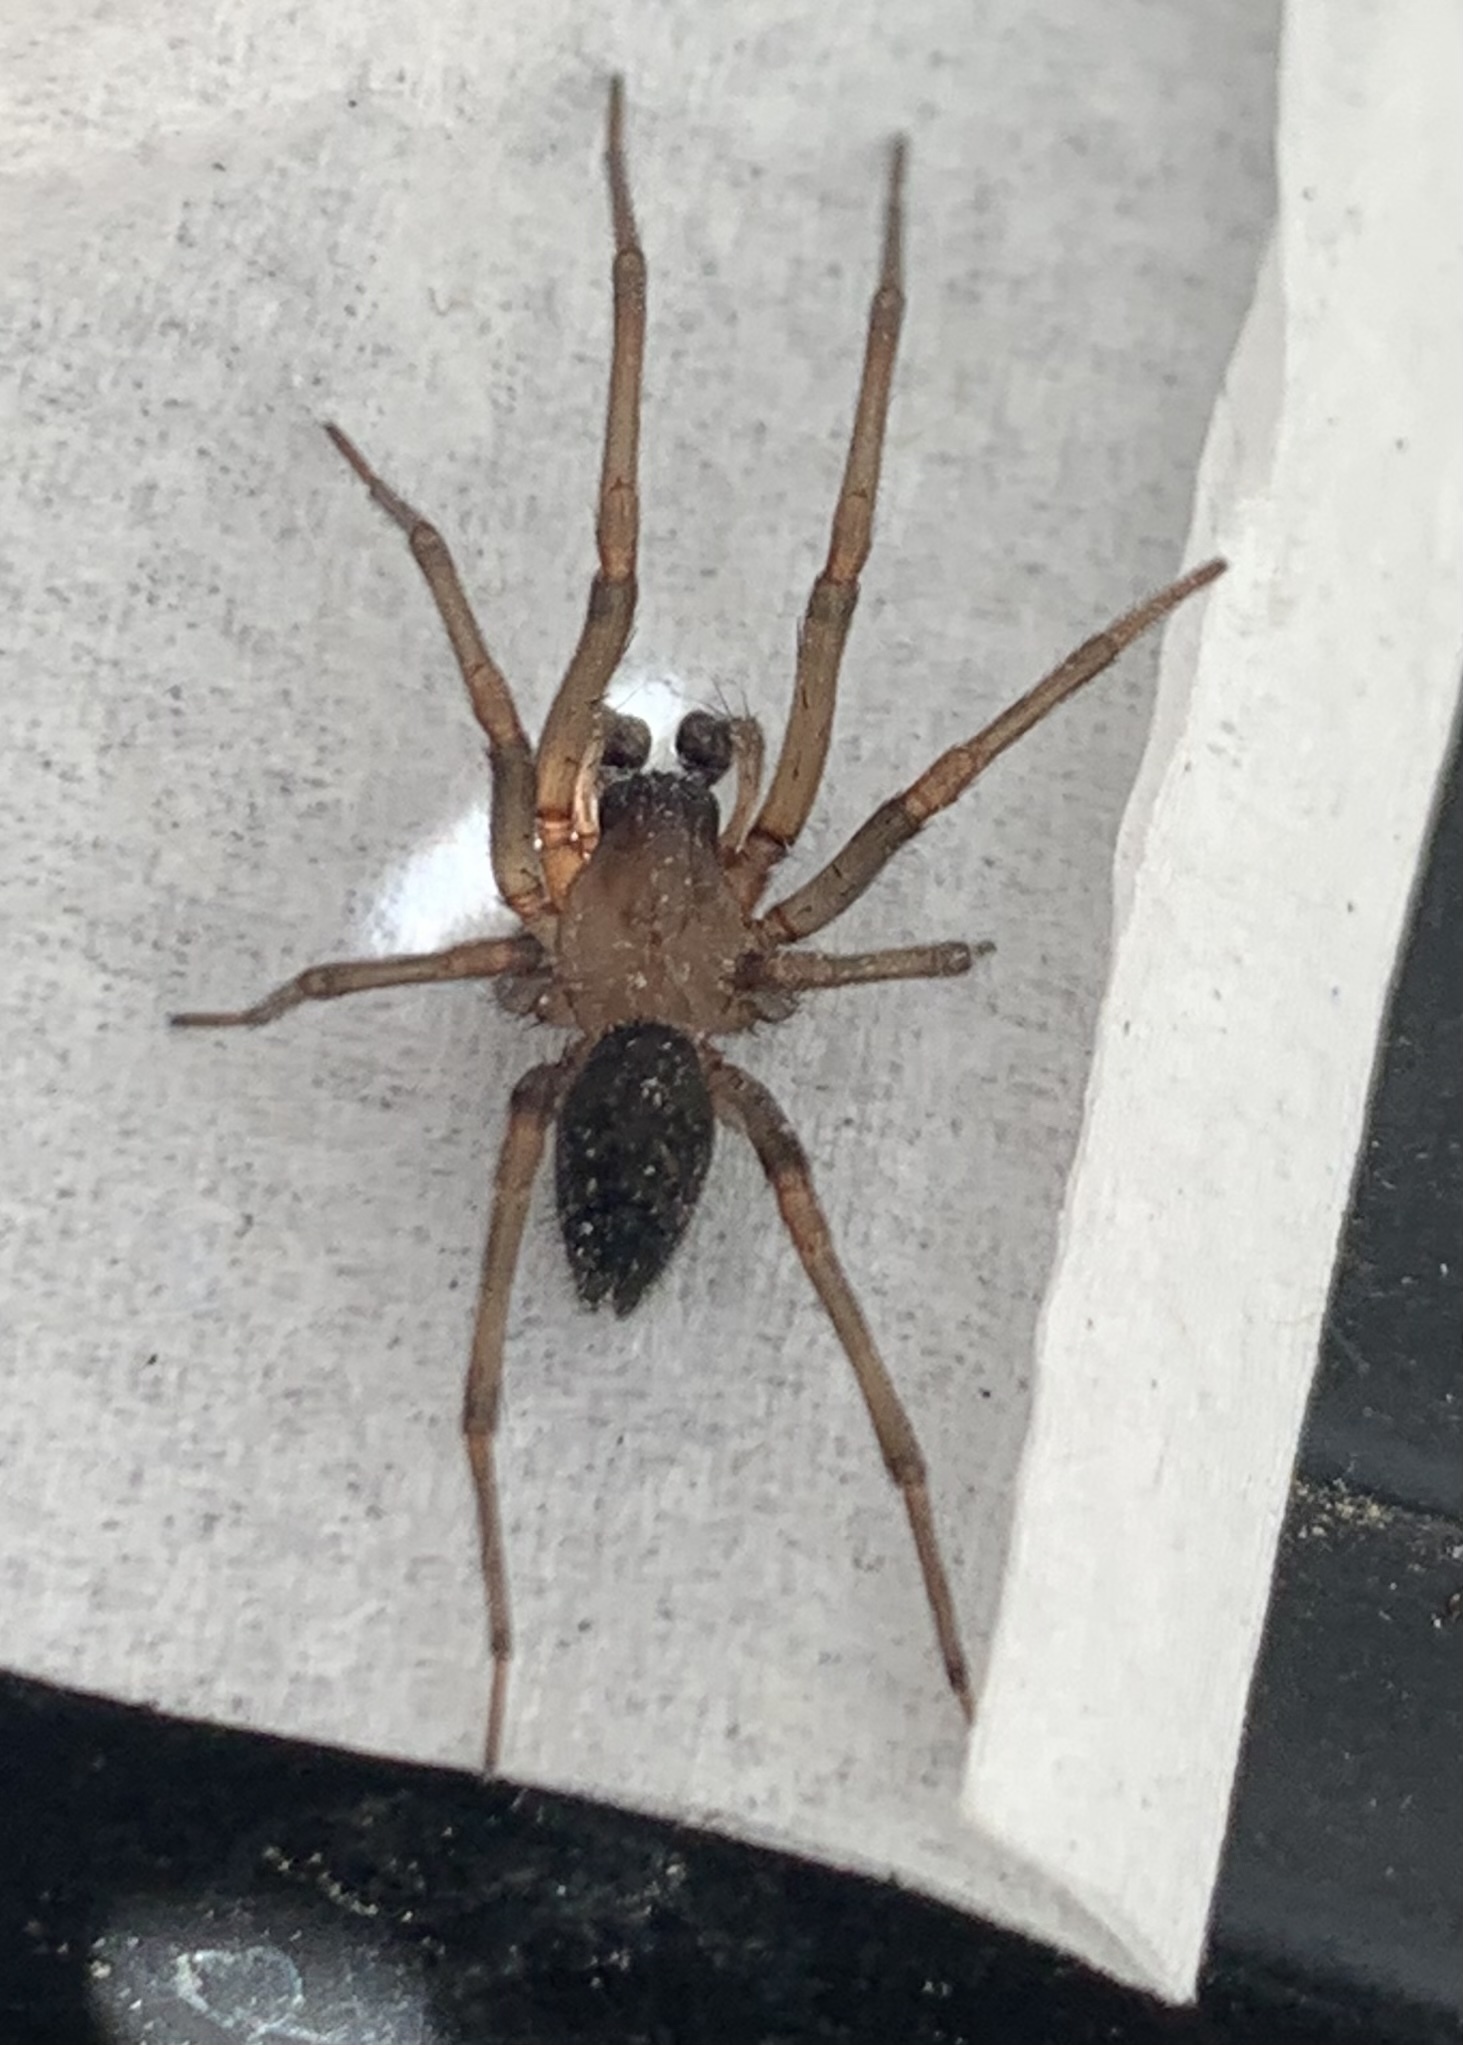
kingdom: Animalia
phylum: Arthropoda
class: Arachnida
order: Araneae
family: Desidae
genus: Metaltella
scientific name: Metaltella simoni
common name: Cribellate spider
